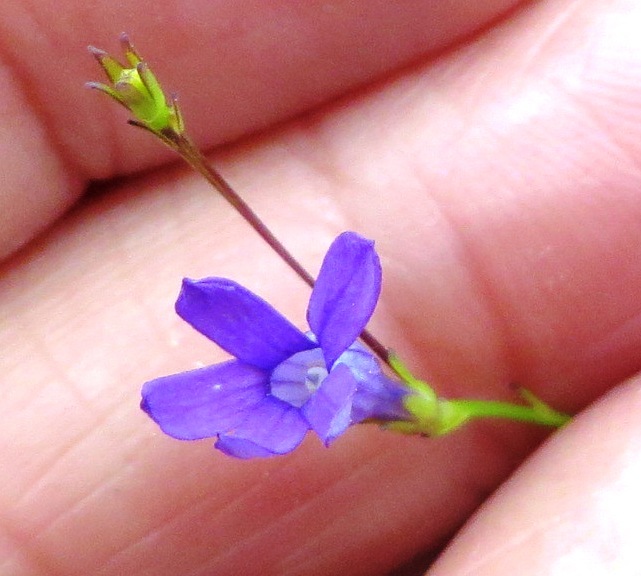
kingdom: Plantae
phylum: Tracheophyta
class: Magnoliopsida
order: Asterales
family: Campanulaceae
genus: Siphocodon
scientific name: Siphocodon spartioides
